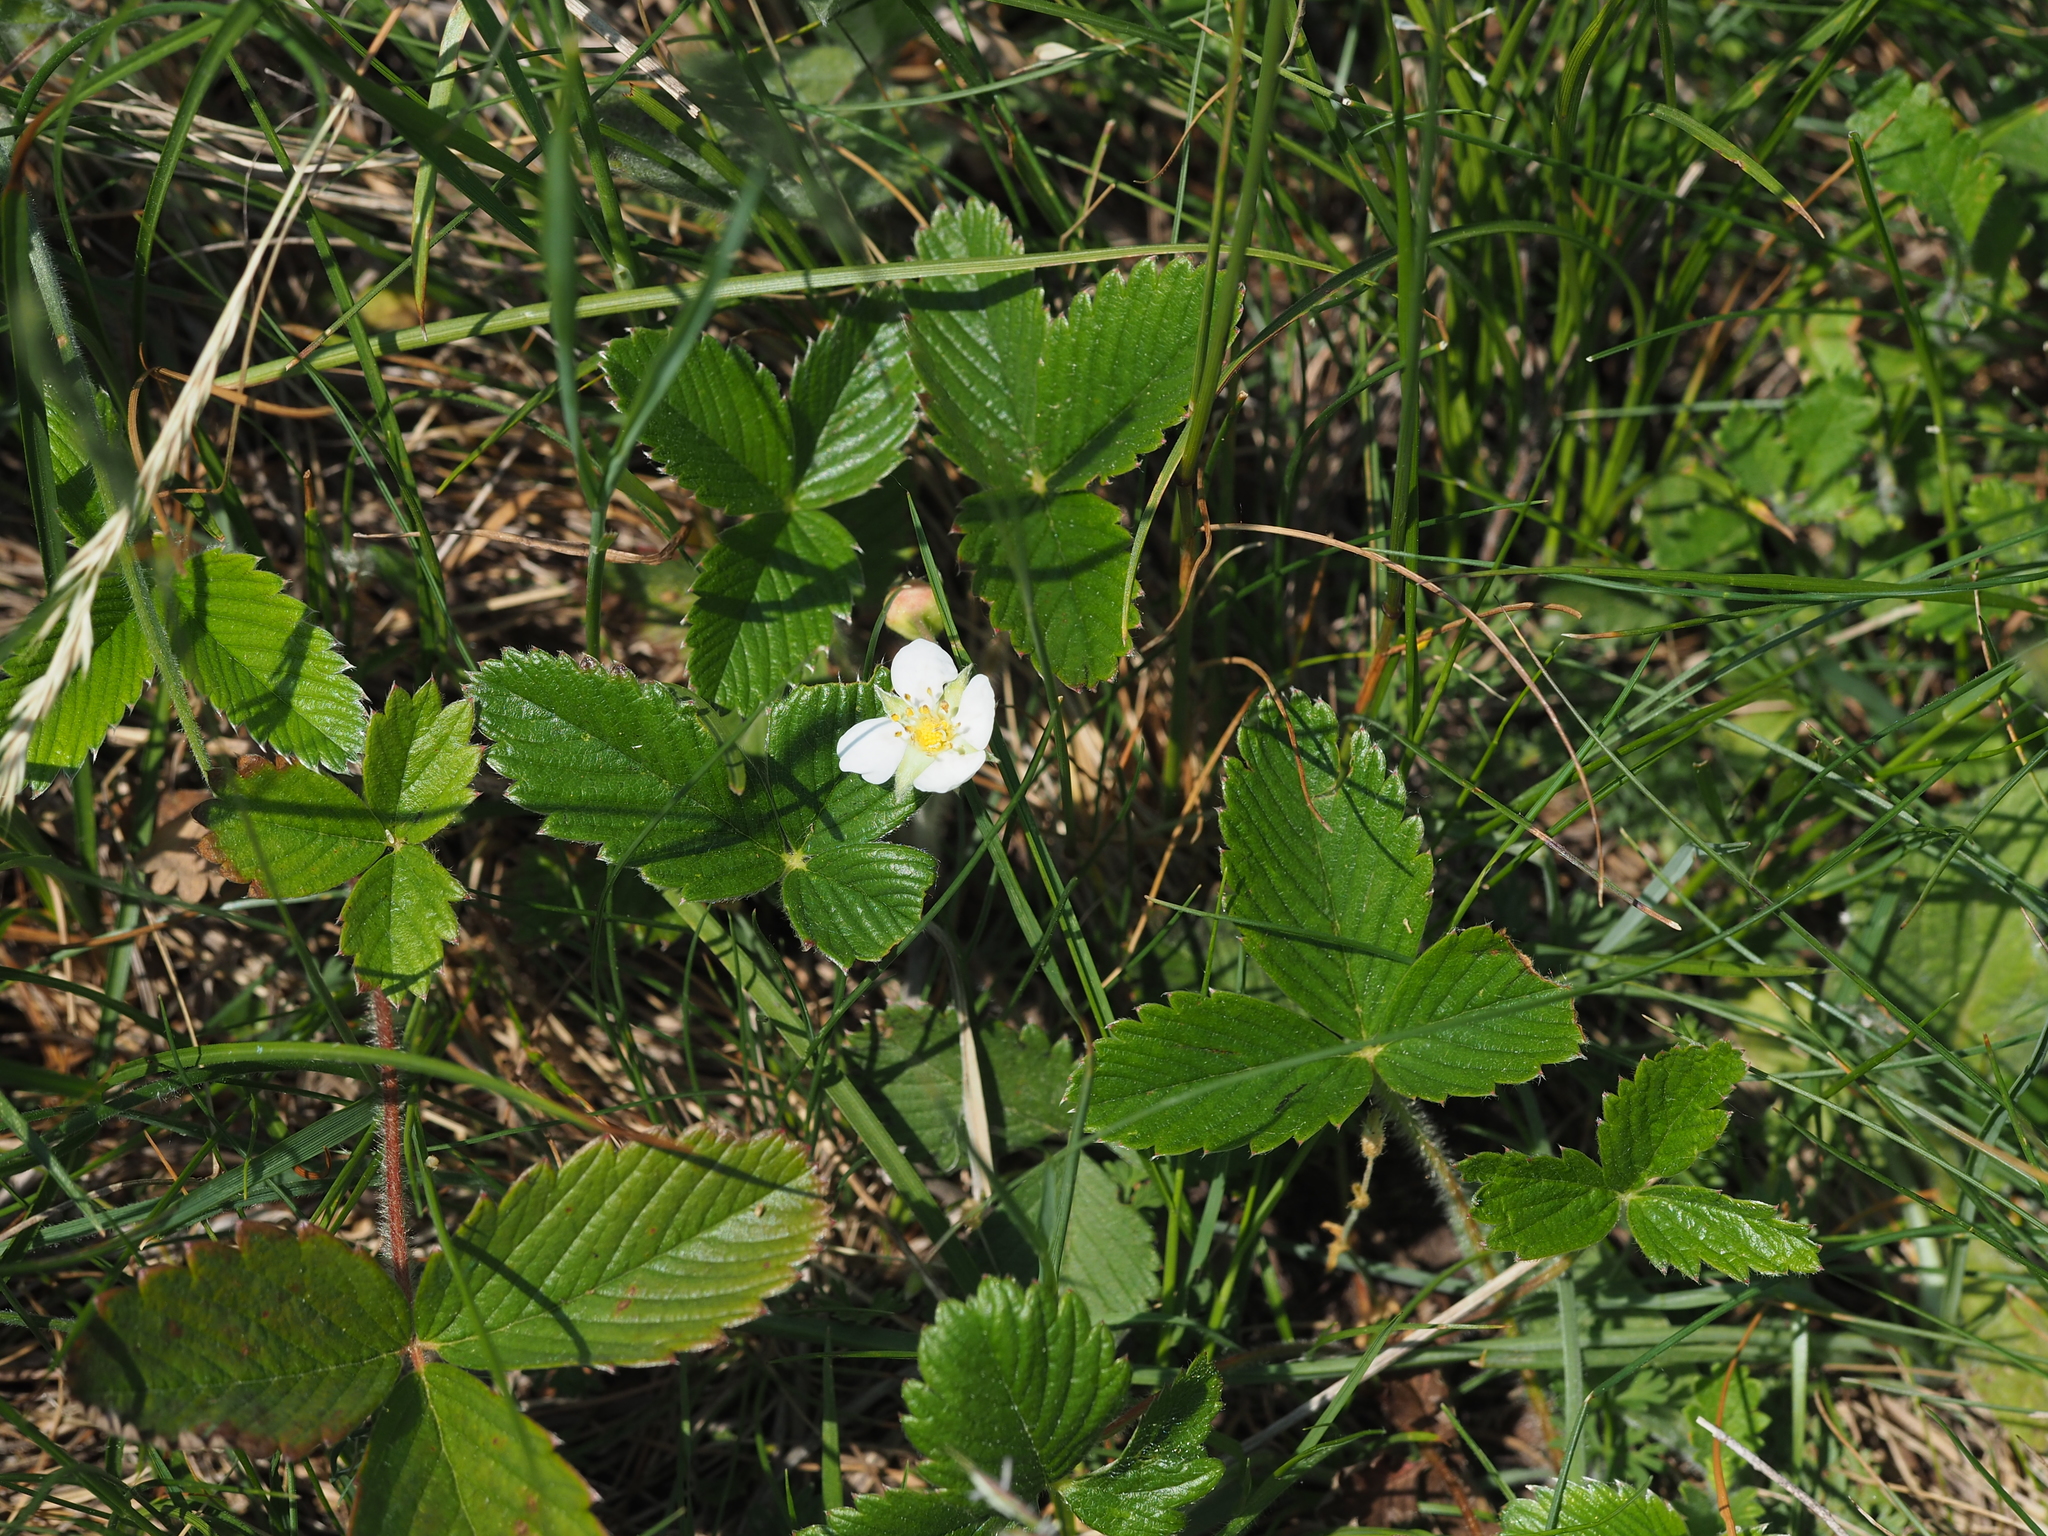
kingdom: Plantae
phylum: Tracheophyta
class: Magnoliopsida
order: Rosales
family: Rosaceae
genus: Fragaria
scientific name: Fragaria viridis
